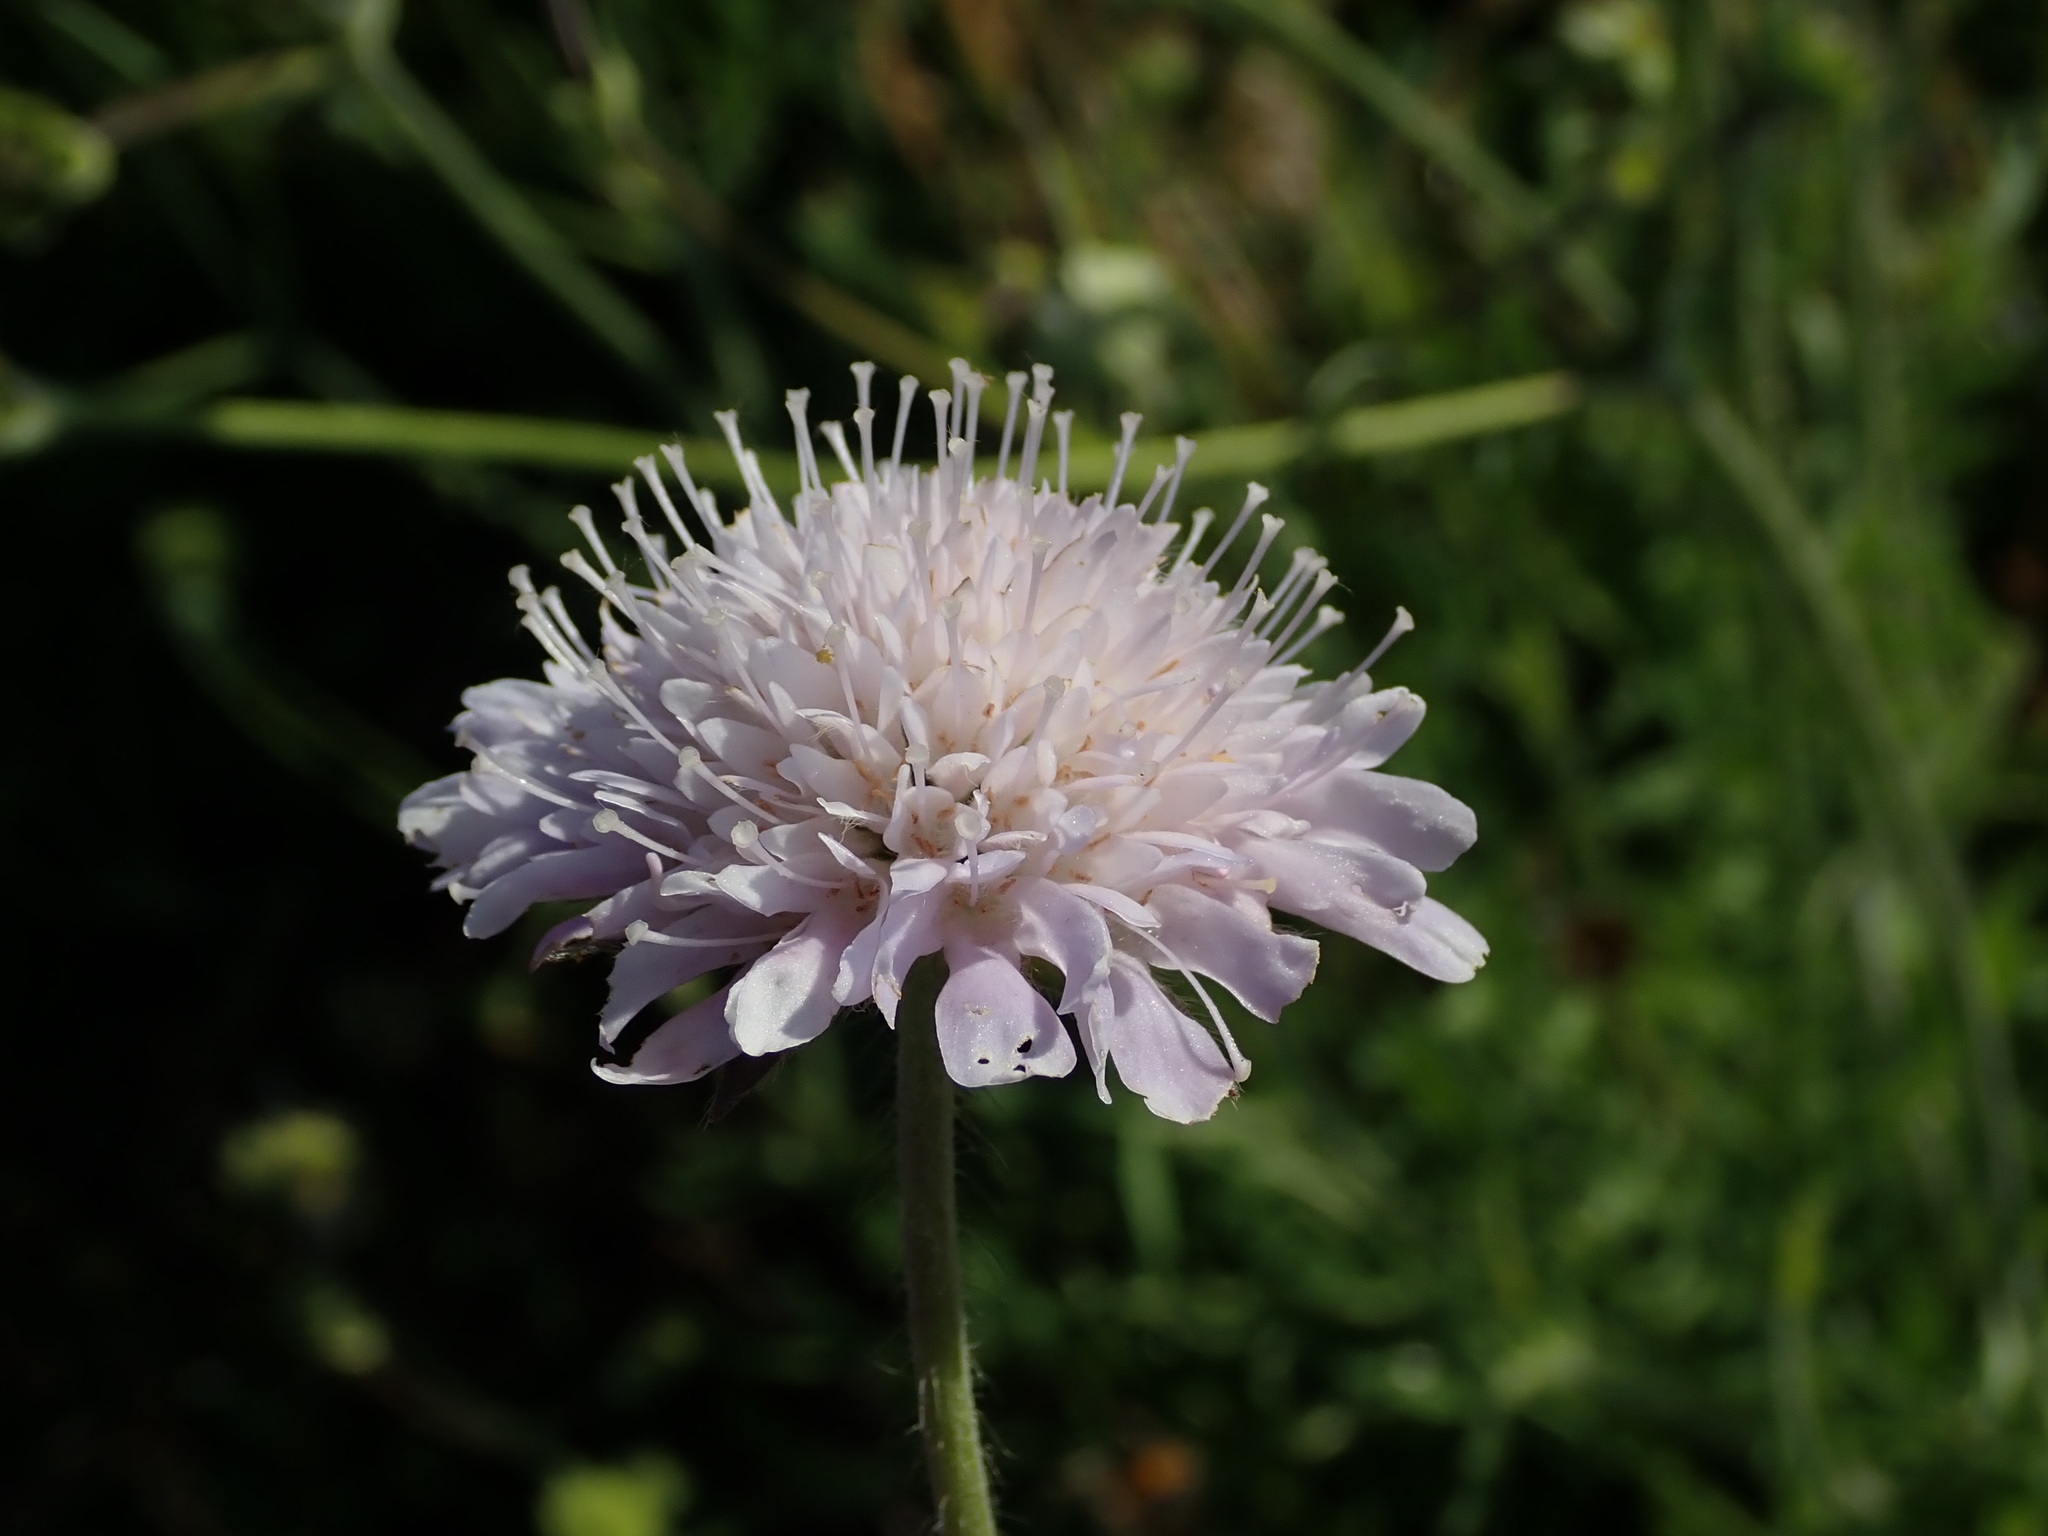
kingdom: Plantae
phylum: Tracheophyta
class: Magnoliopsida
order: Dipsacales
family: Caprifoliaceae
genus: Knautia
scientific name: Knautia arvensis
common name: Field scabiosa
